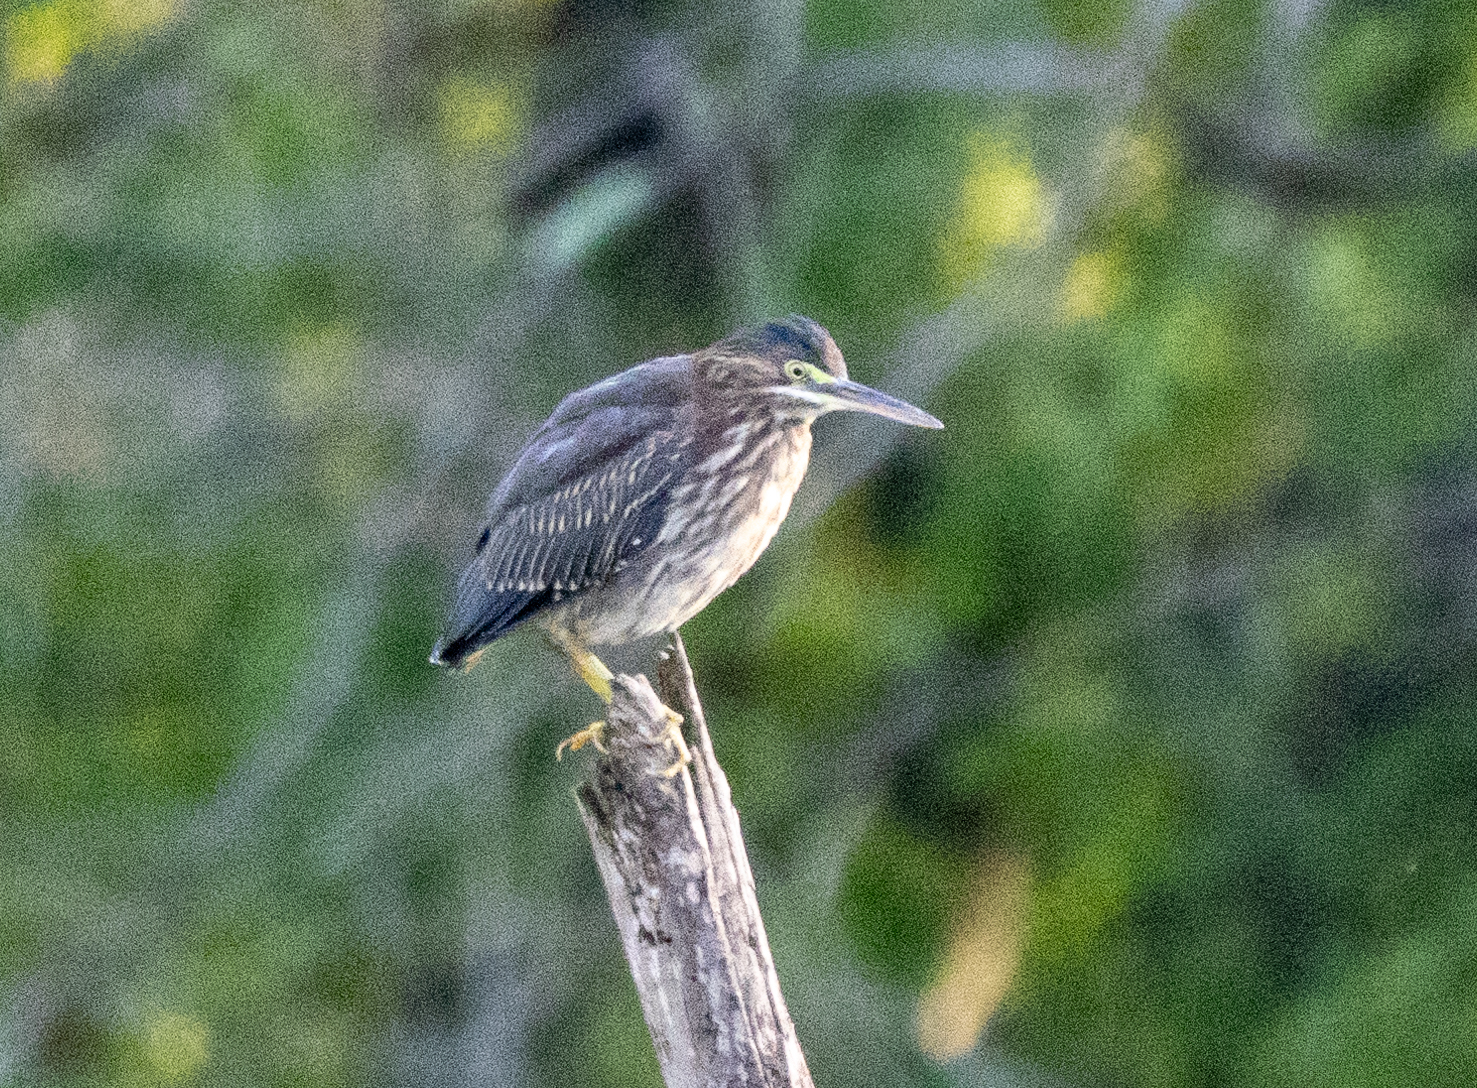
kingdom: Animalia
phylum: Chordata
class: Aves
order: Pelecaniformes
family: Ardeidae
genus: Butorides
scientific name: Butorides virescens
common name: Green heron
